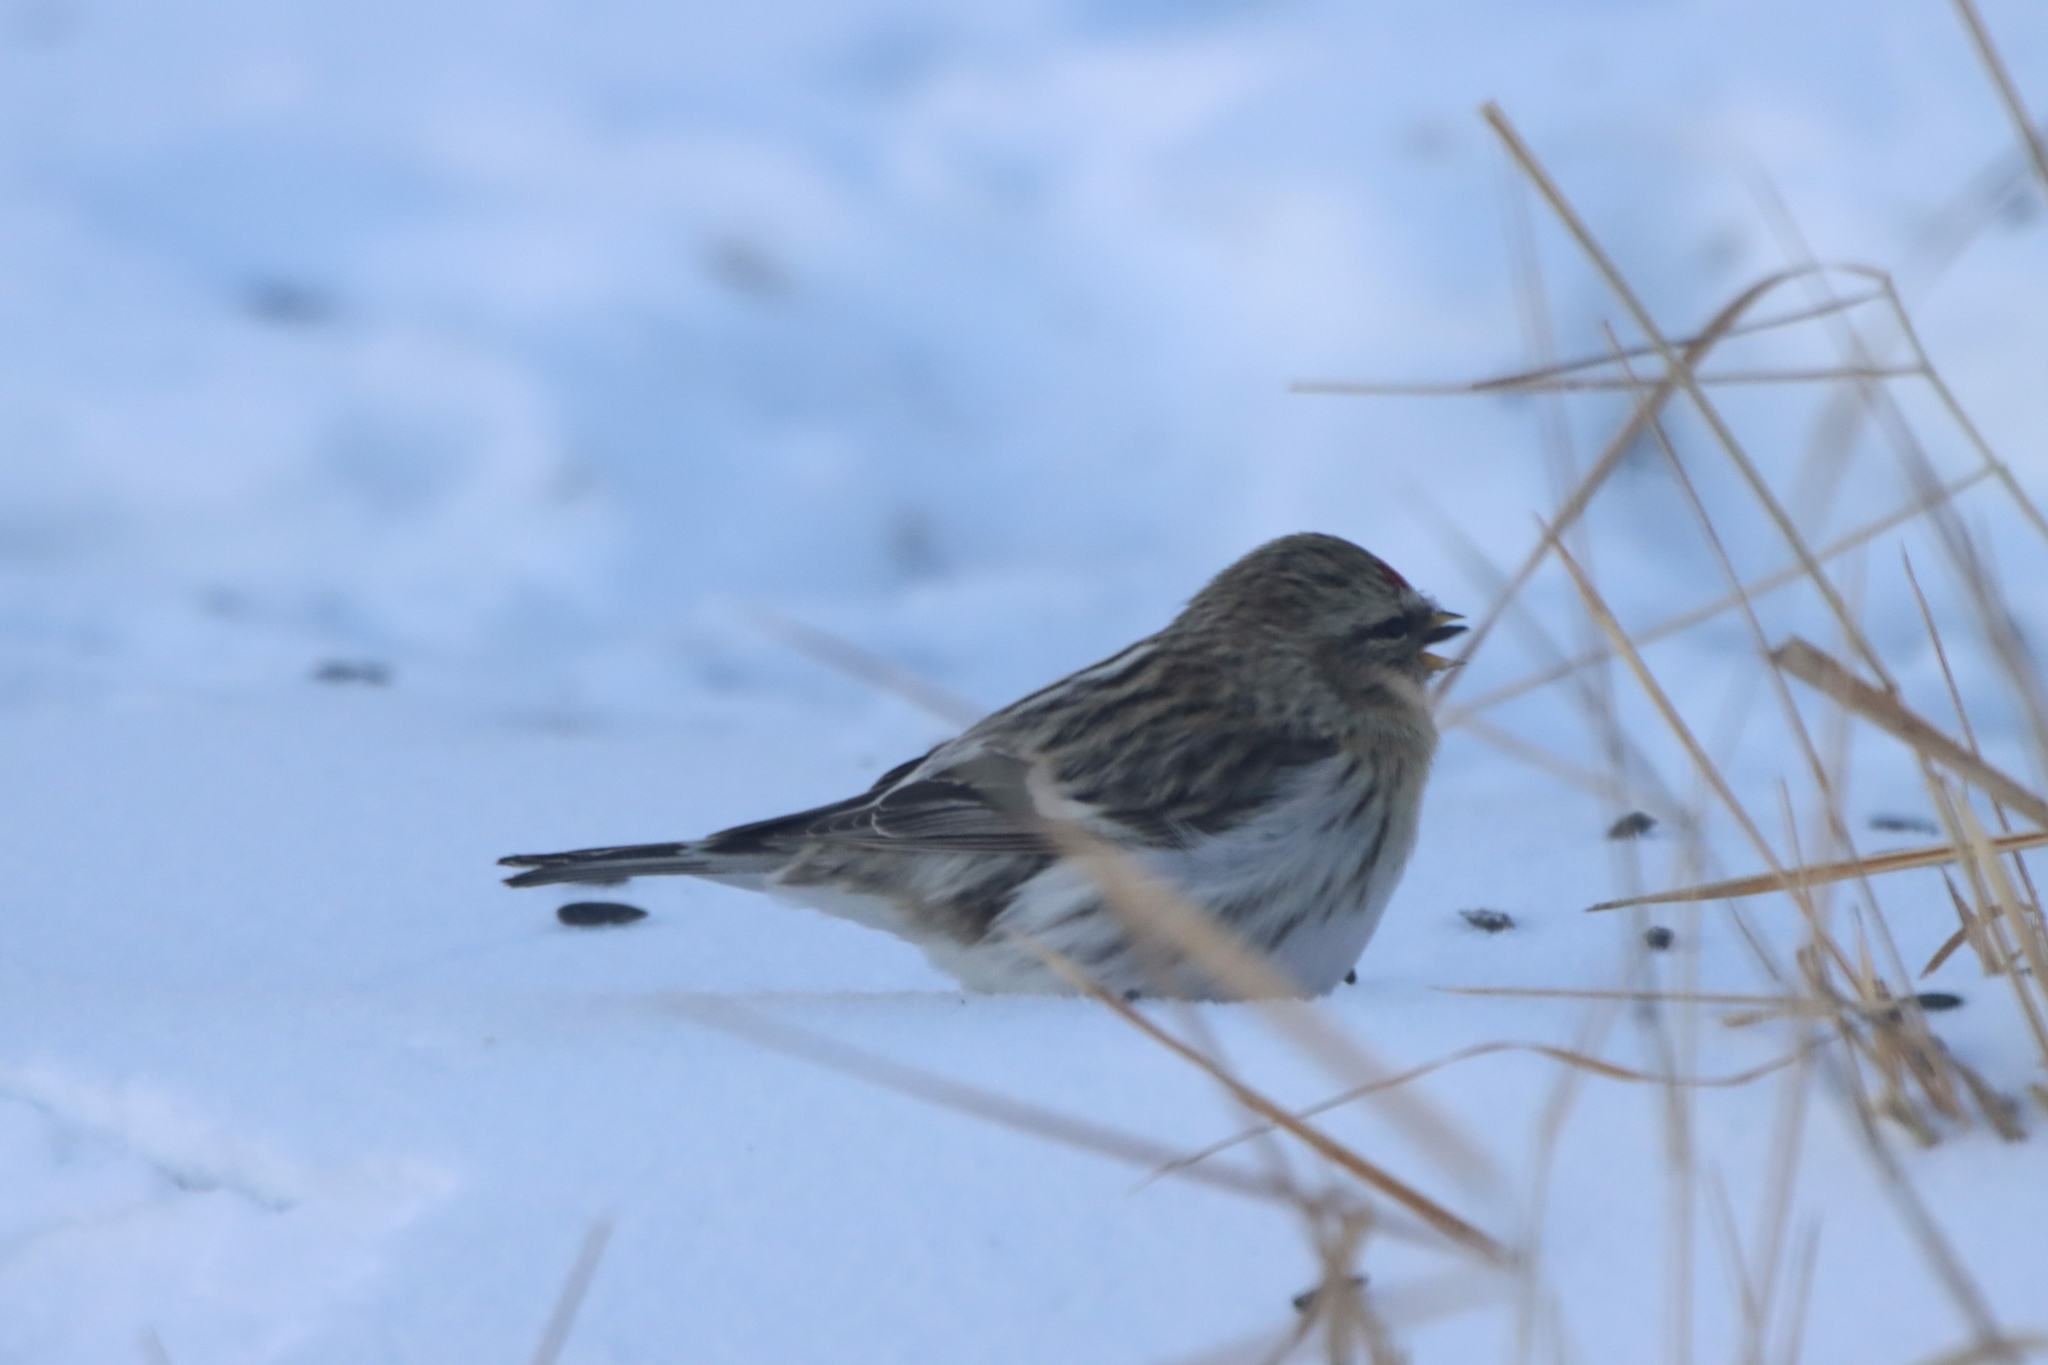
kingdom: Animalia
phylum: Chordata
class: Aves
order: Passeriformes
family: Fringillidae
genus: Acanthis
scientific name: Acanthis flammea
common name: Common redpoll
